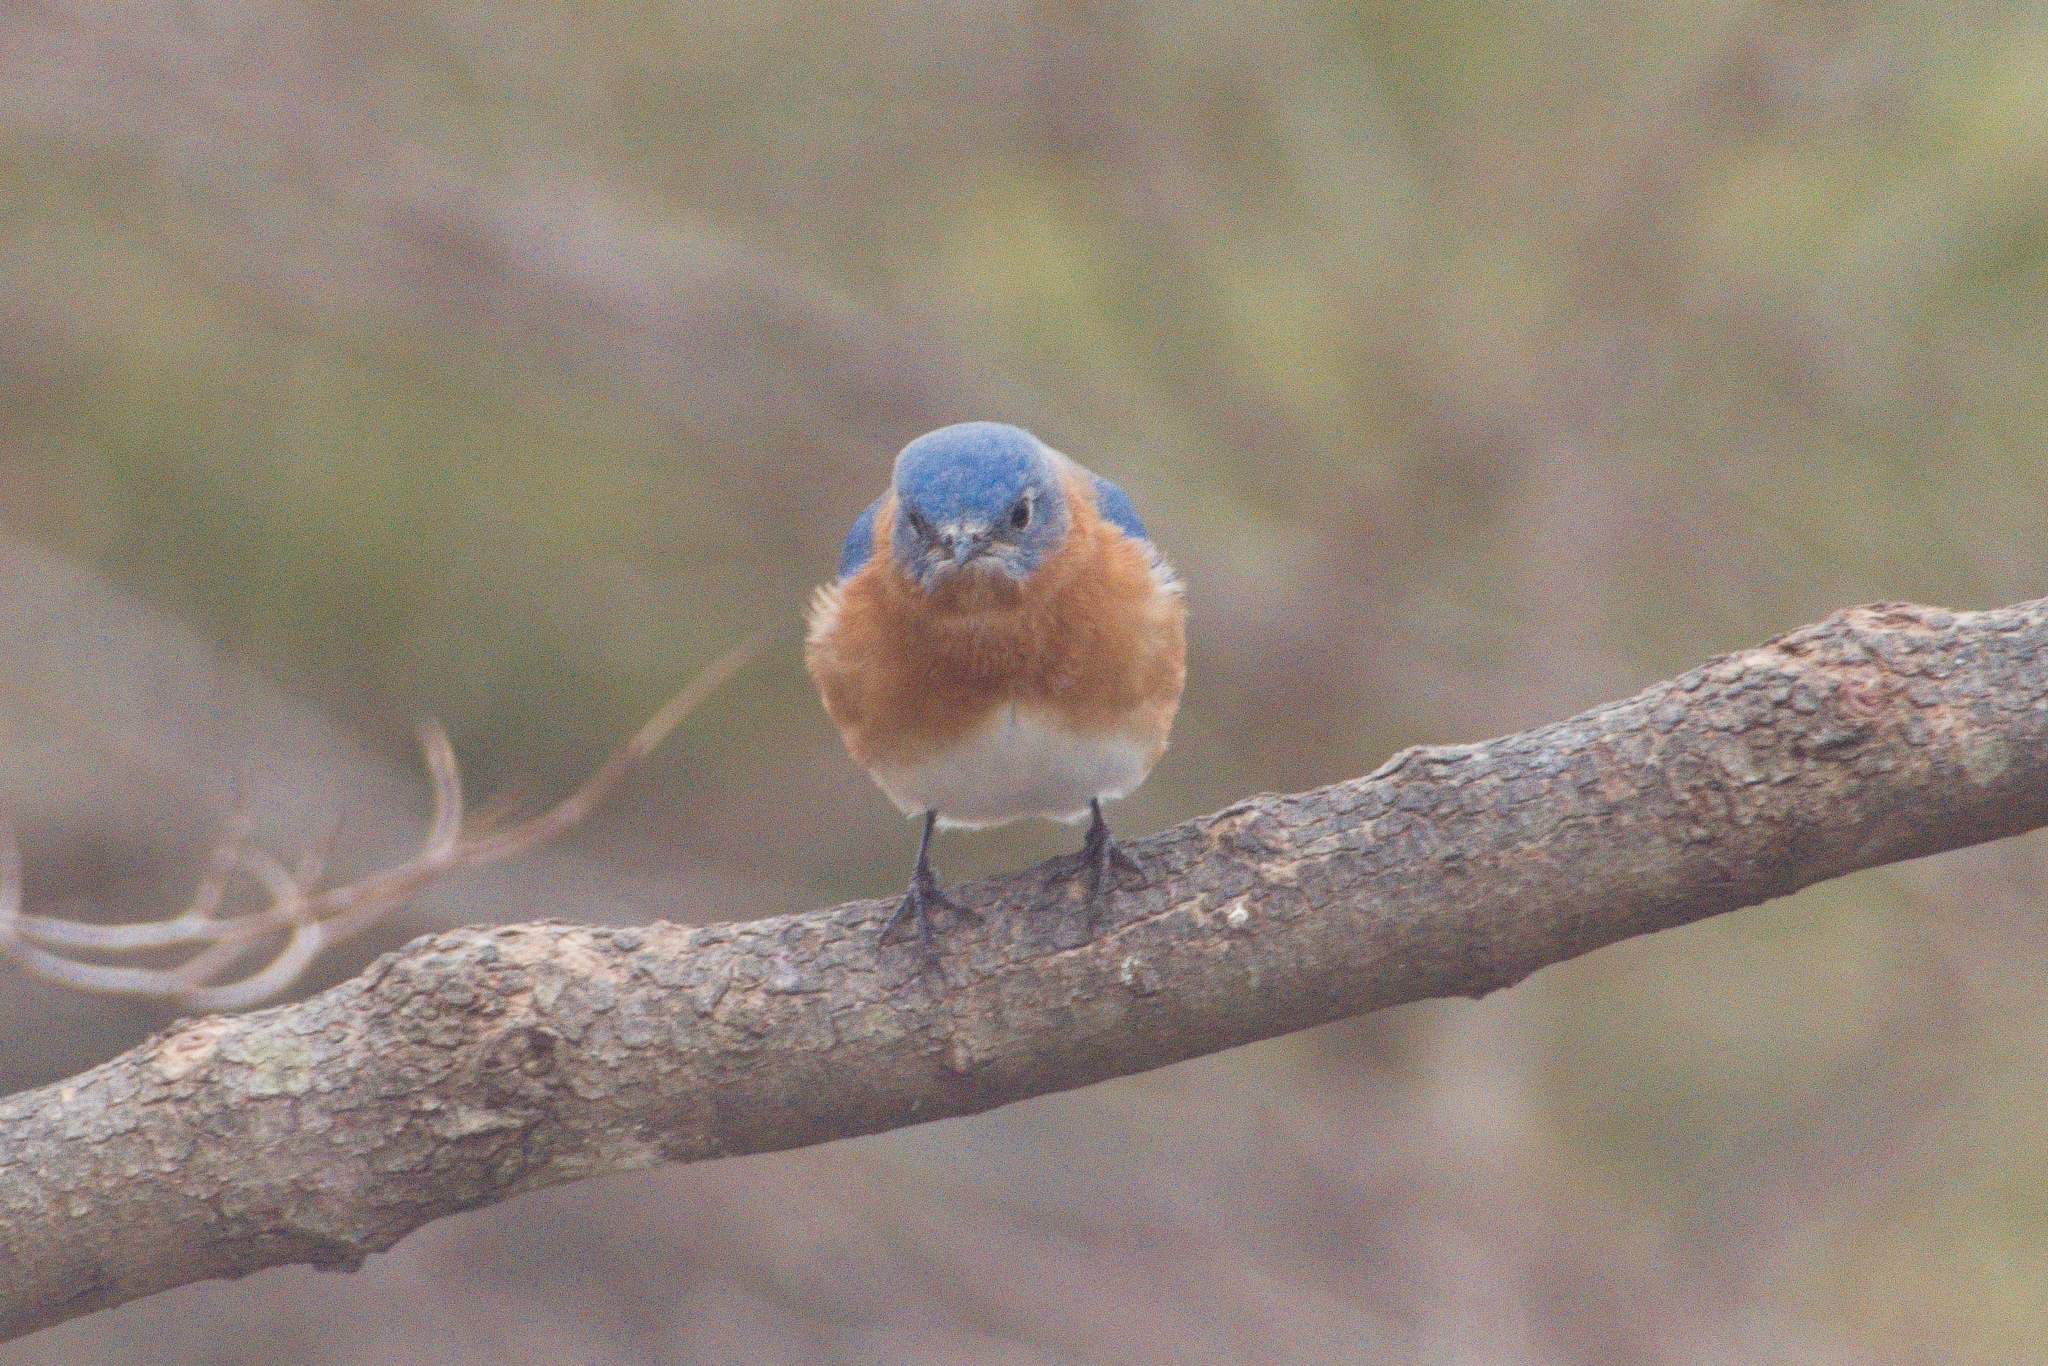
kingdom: Animalia
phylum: Chordata
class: Aves
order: Passeriformes
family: Turdidae
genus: Sialia
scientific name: Sialia sialis
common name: Eastern bluebird
